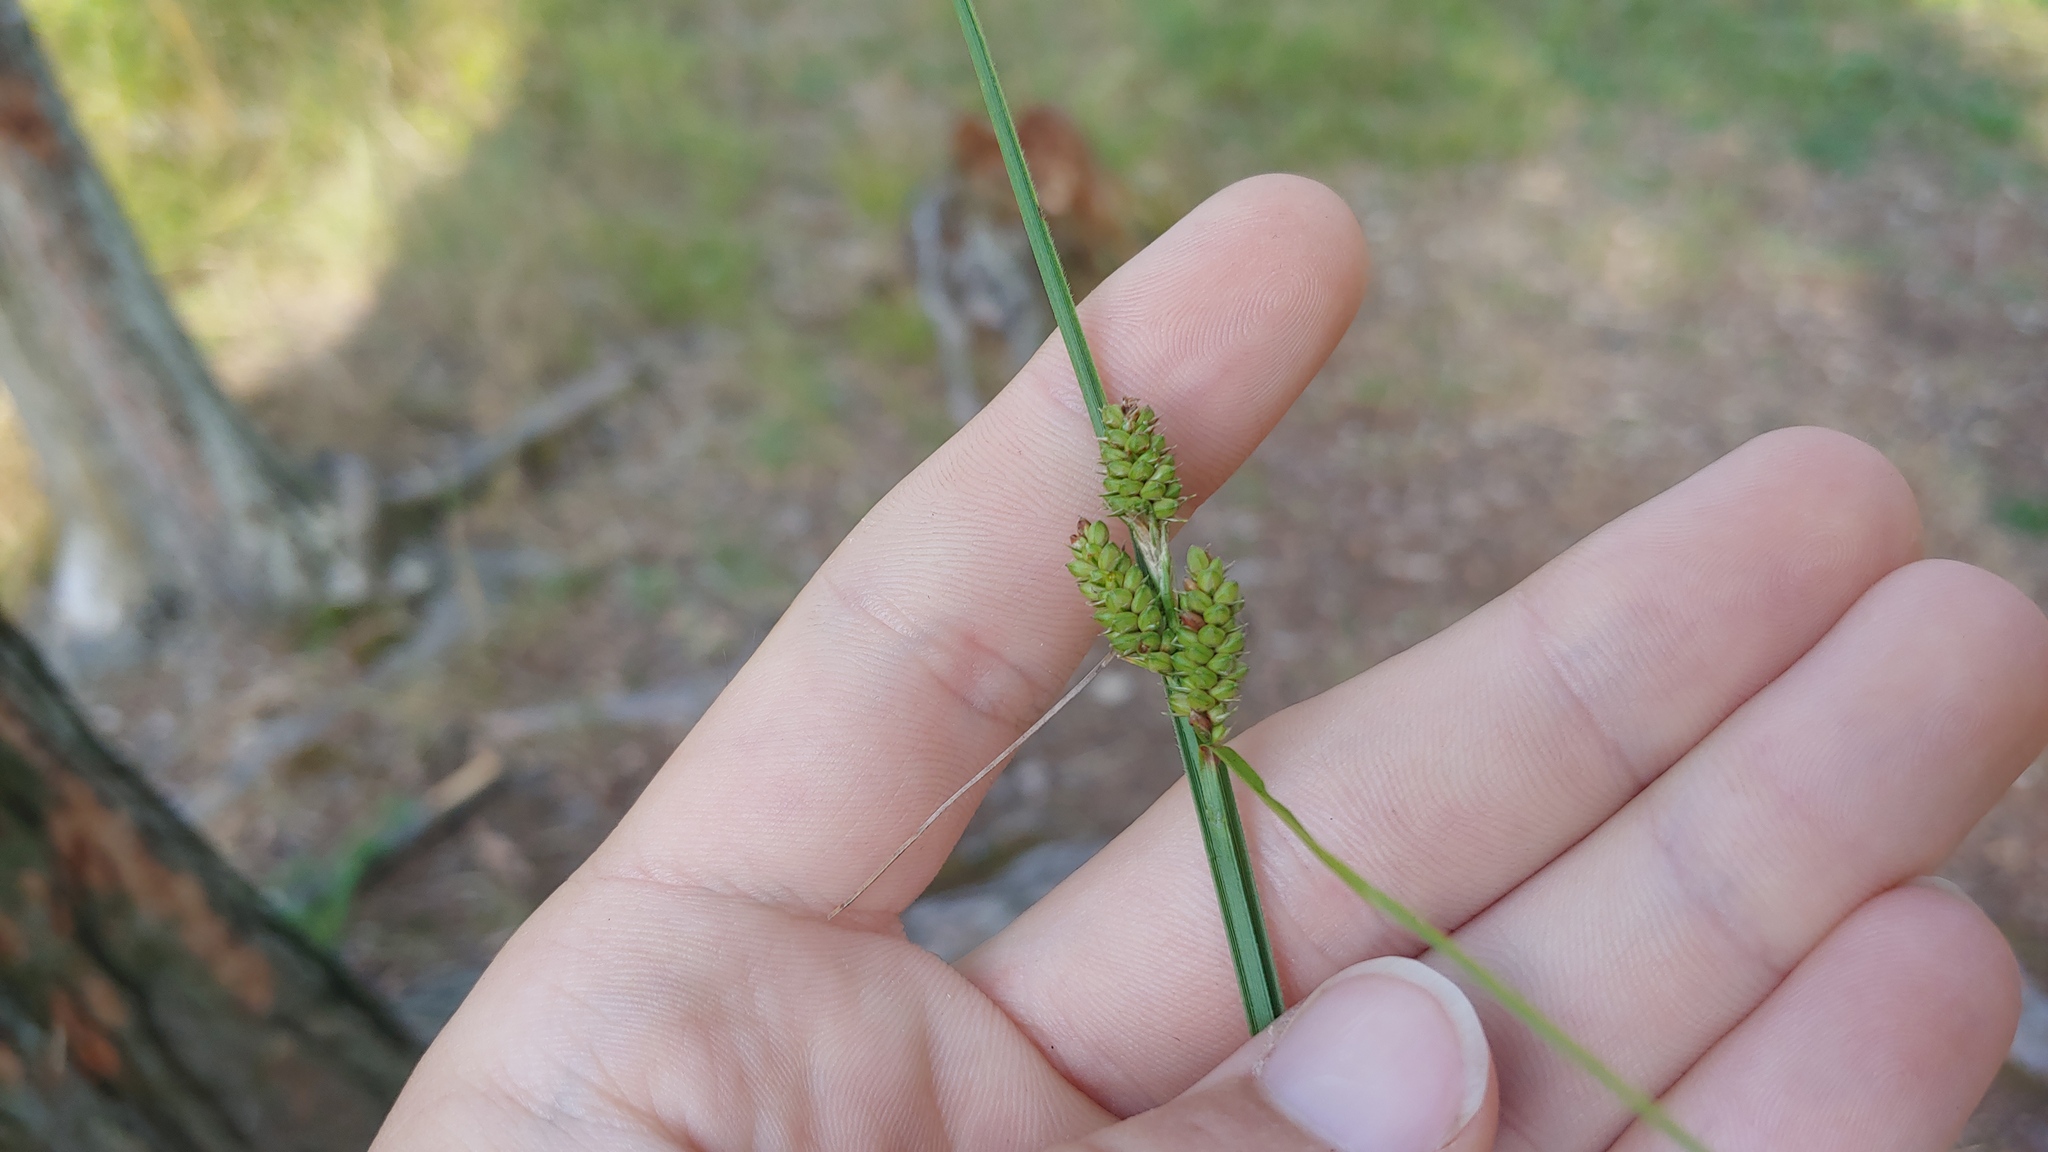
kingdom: Plantae
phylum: Tracheophyta
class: Liliopsida
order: Poales
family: Cyperaceae
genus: Carex
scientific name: Carex hirsutella
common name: Fuzzy wuzzy sedge
